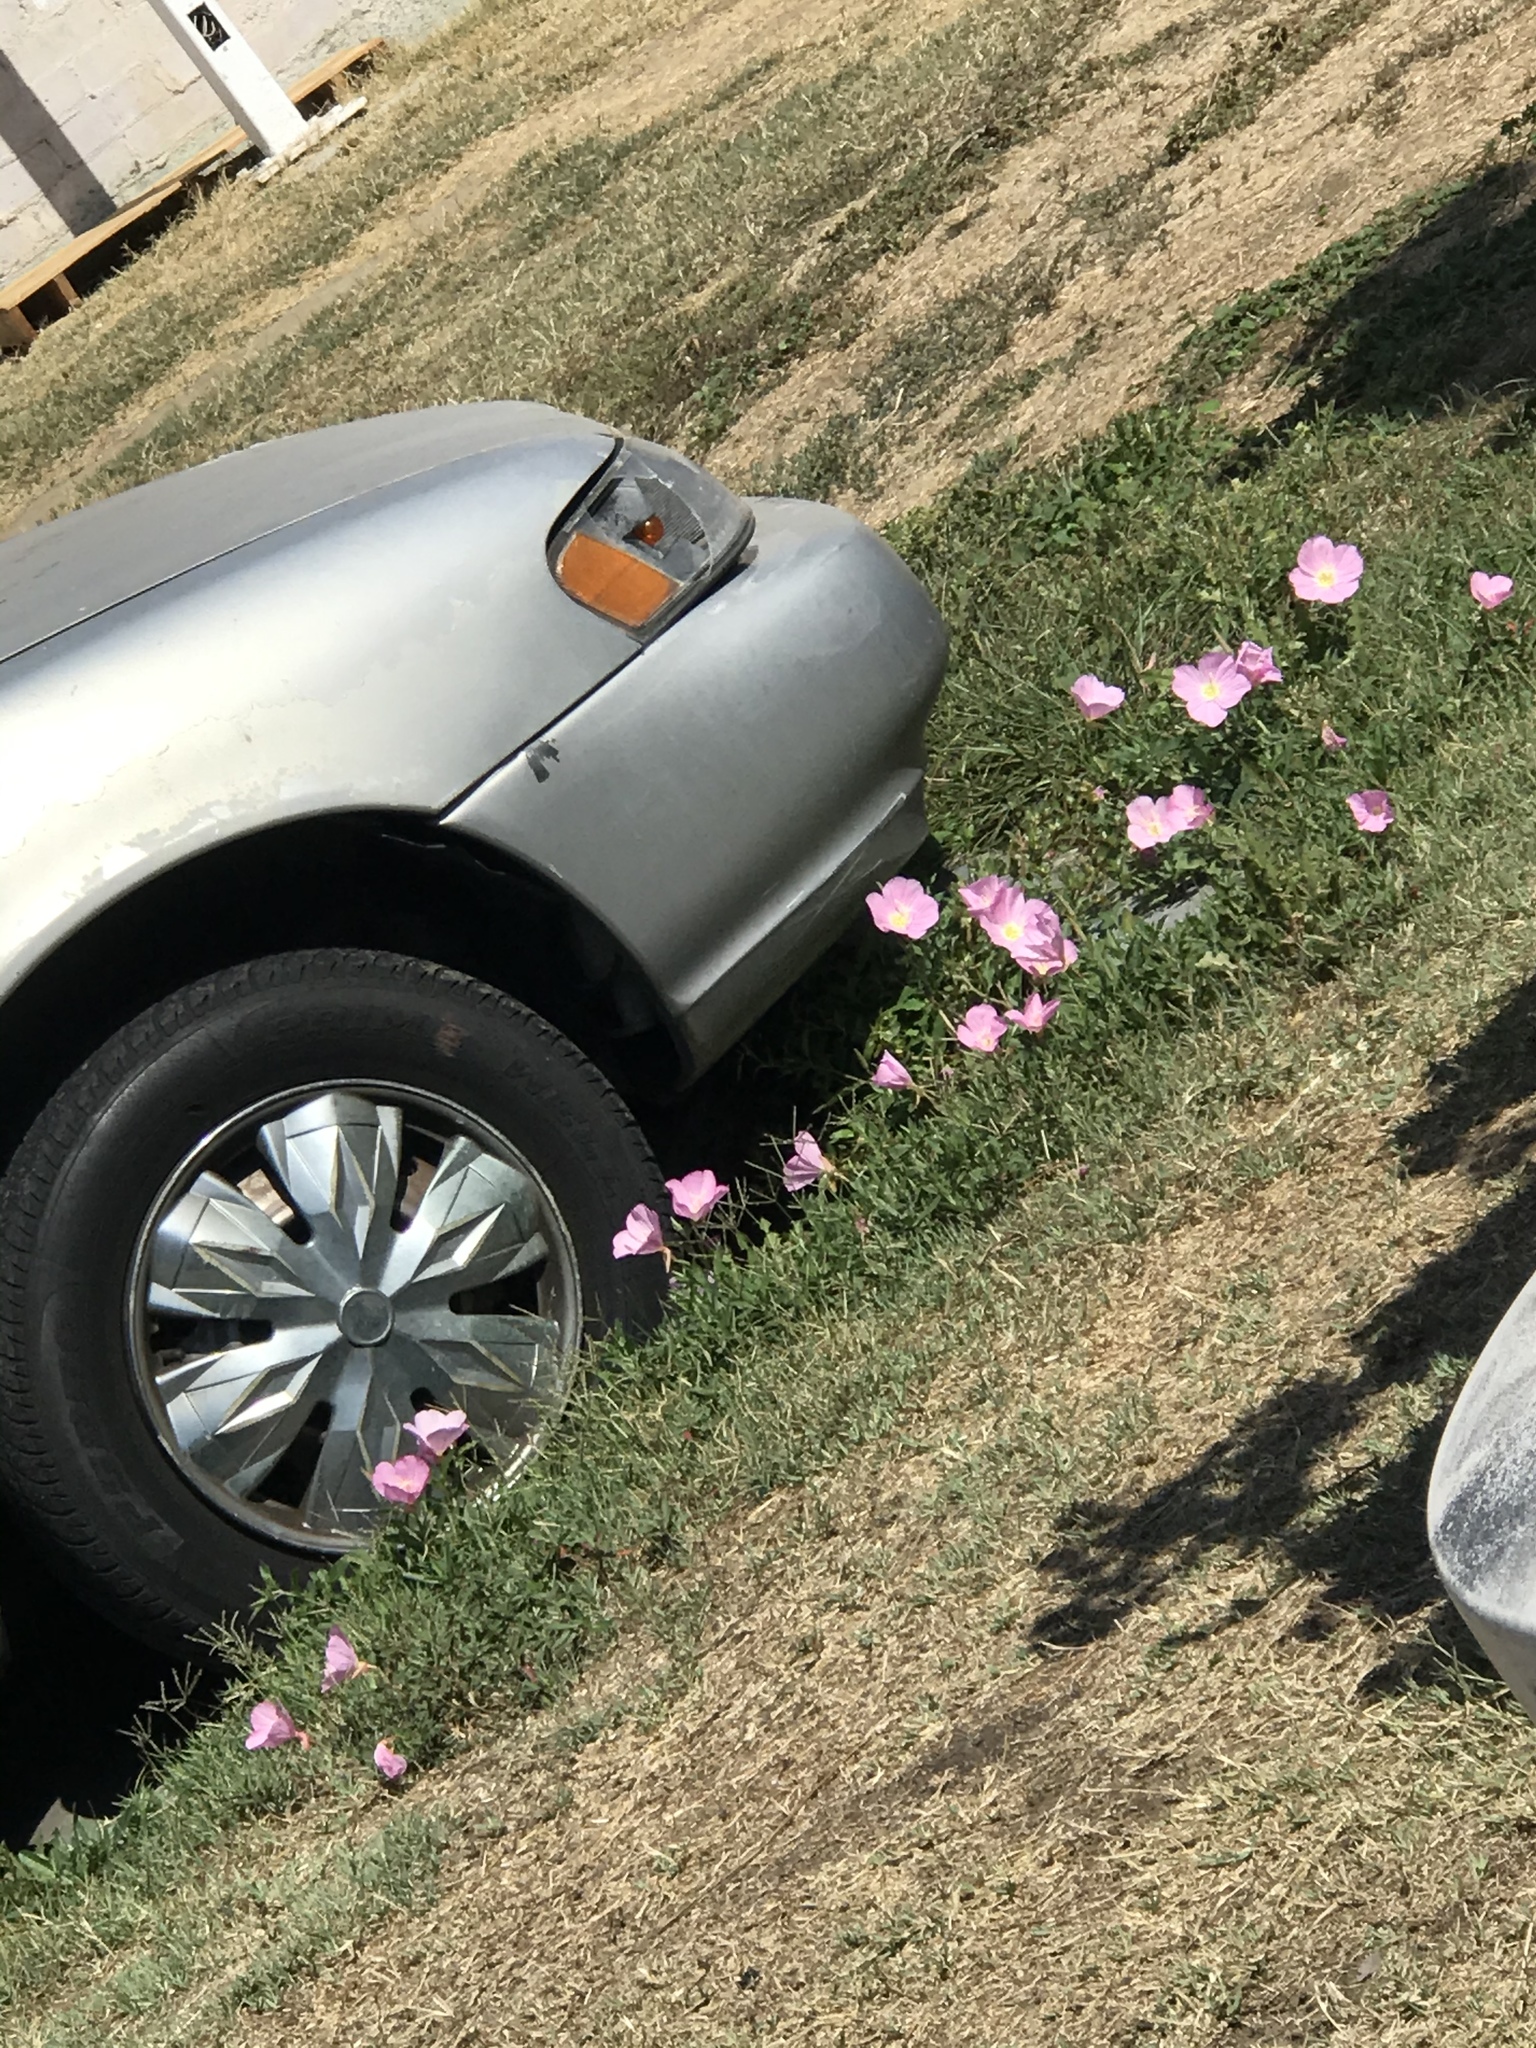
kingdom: Plantae
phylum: Tracheophyta
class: Magnoliopsida
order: Myrtales
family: Onagraceae
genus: Oenothera
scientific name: Oenothera speciosa
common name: White evening-primrose
